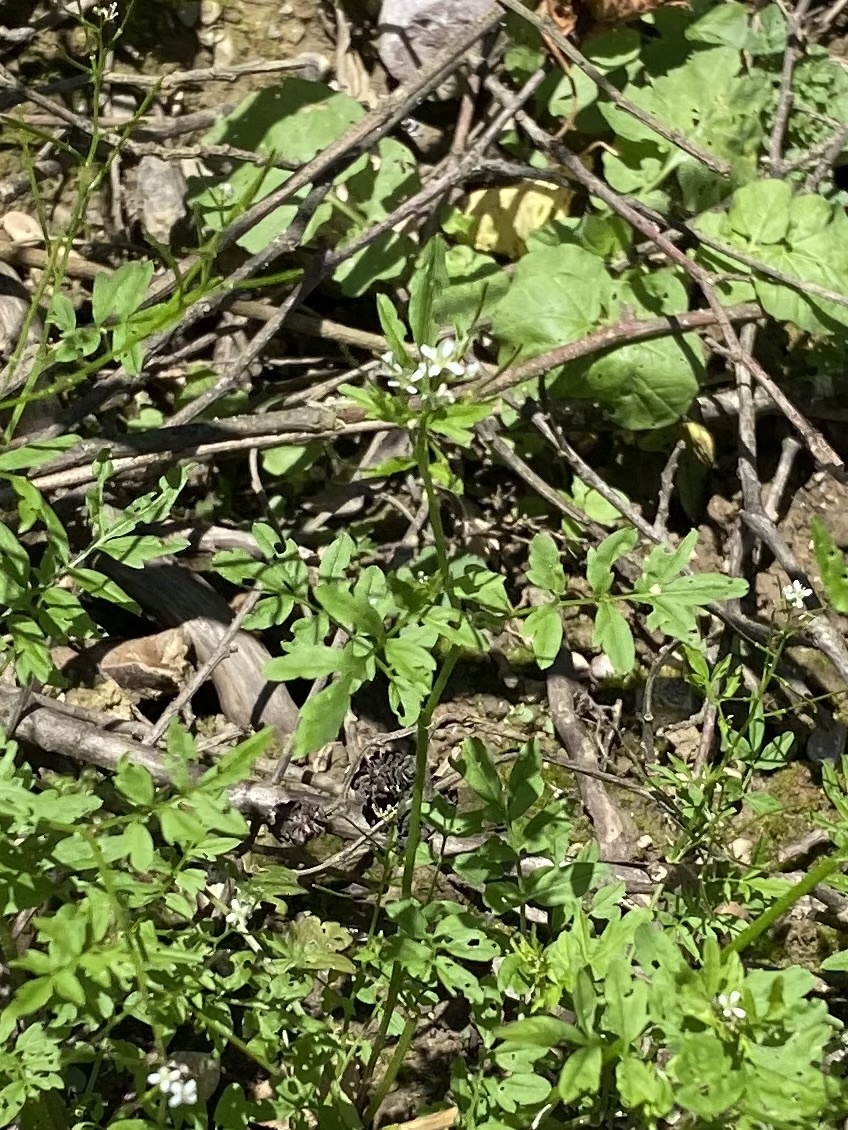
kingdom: Plantae
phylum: Tracheophyta
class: Magnoliopsida
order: Brassicales
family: Brassicaceae
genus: Cardamine
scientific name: Cardamine impatiens
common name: Narrow-leaved bitter-cress
